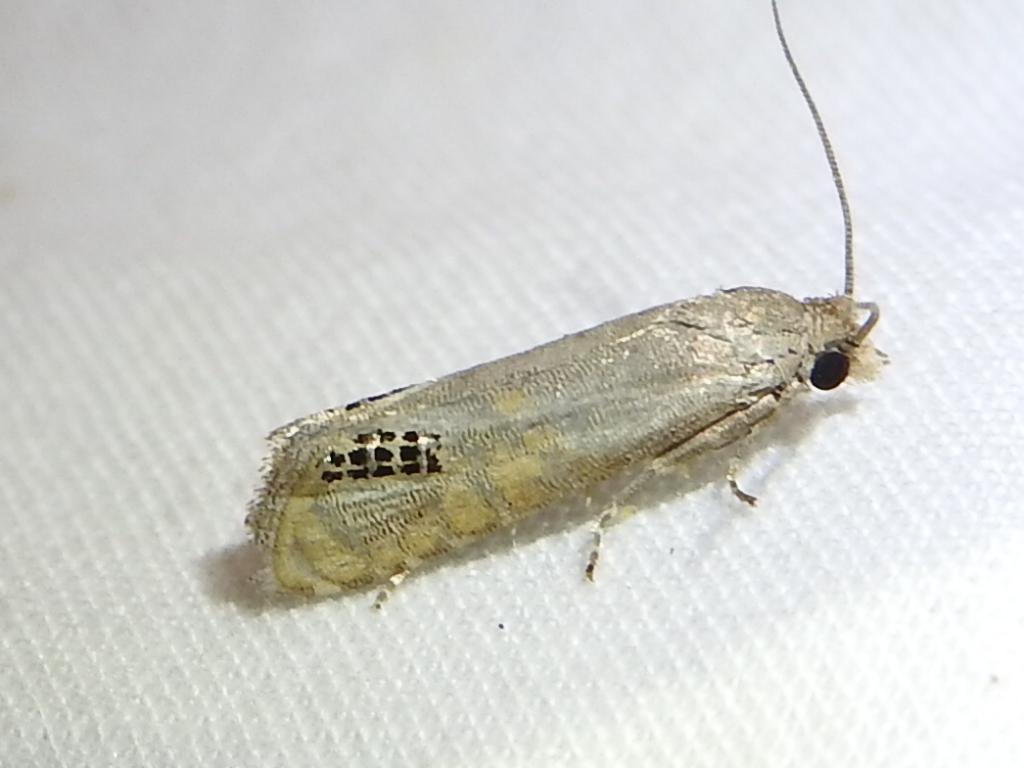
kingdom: Animalia
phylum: Arthropoda
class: Insecta
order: Lepidoptera
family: Tortricidae
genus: Pelochrista
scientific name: Pelochrista scintillana
